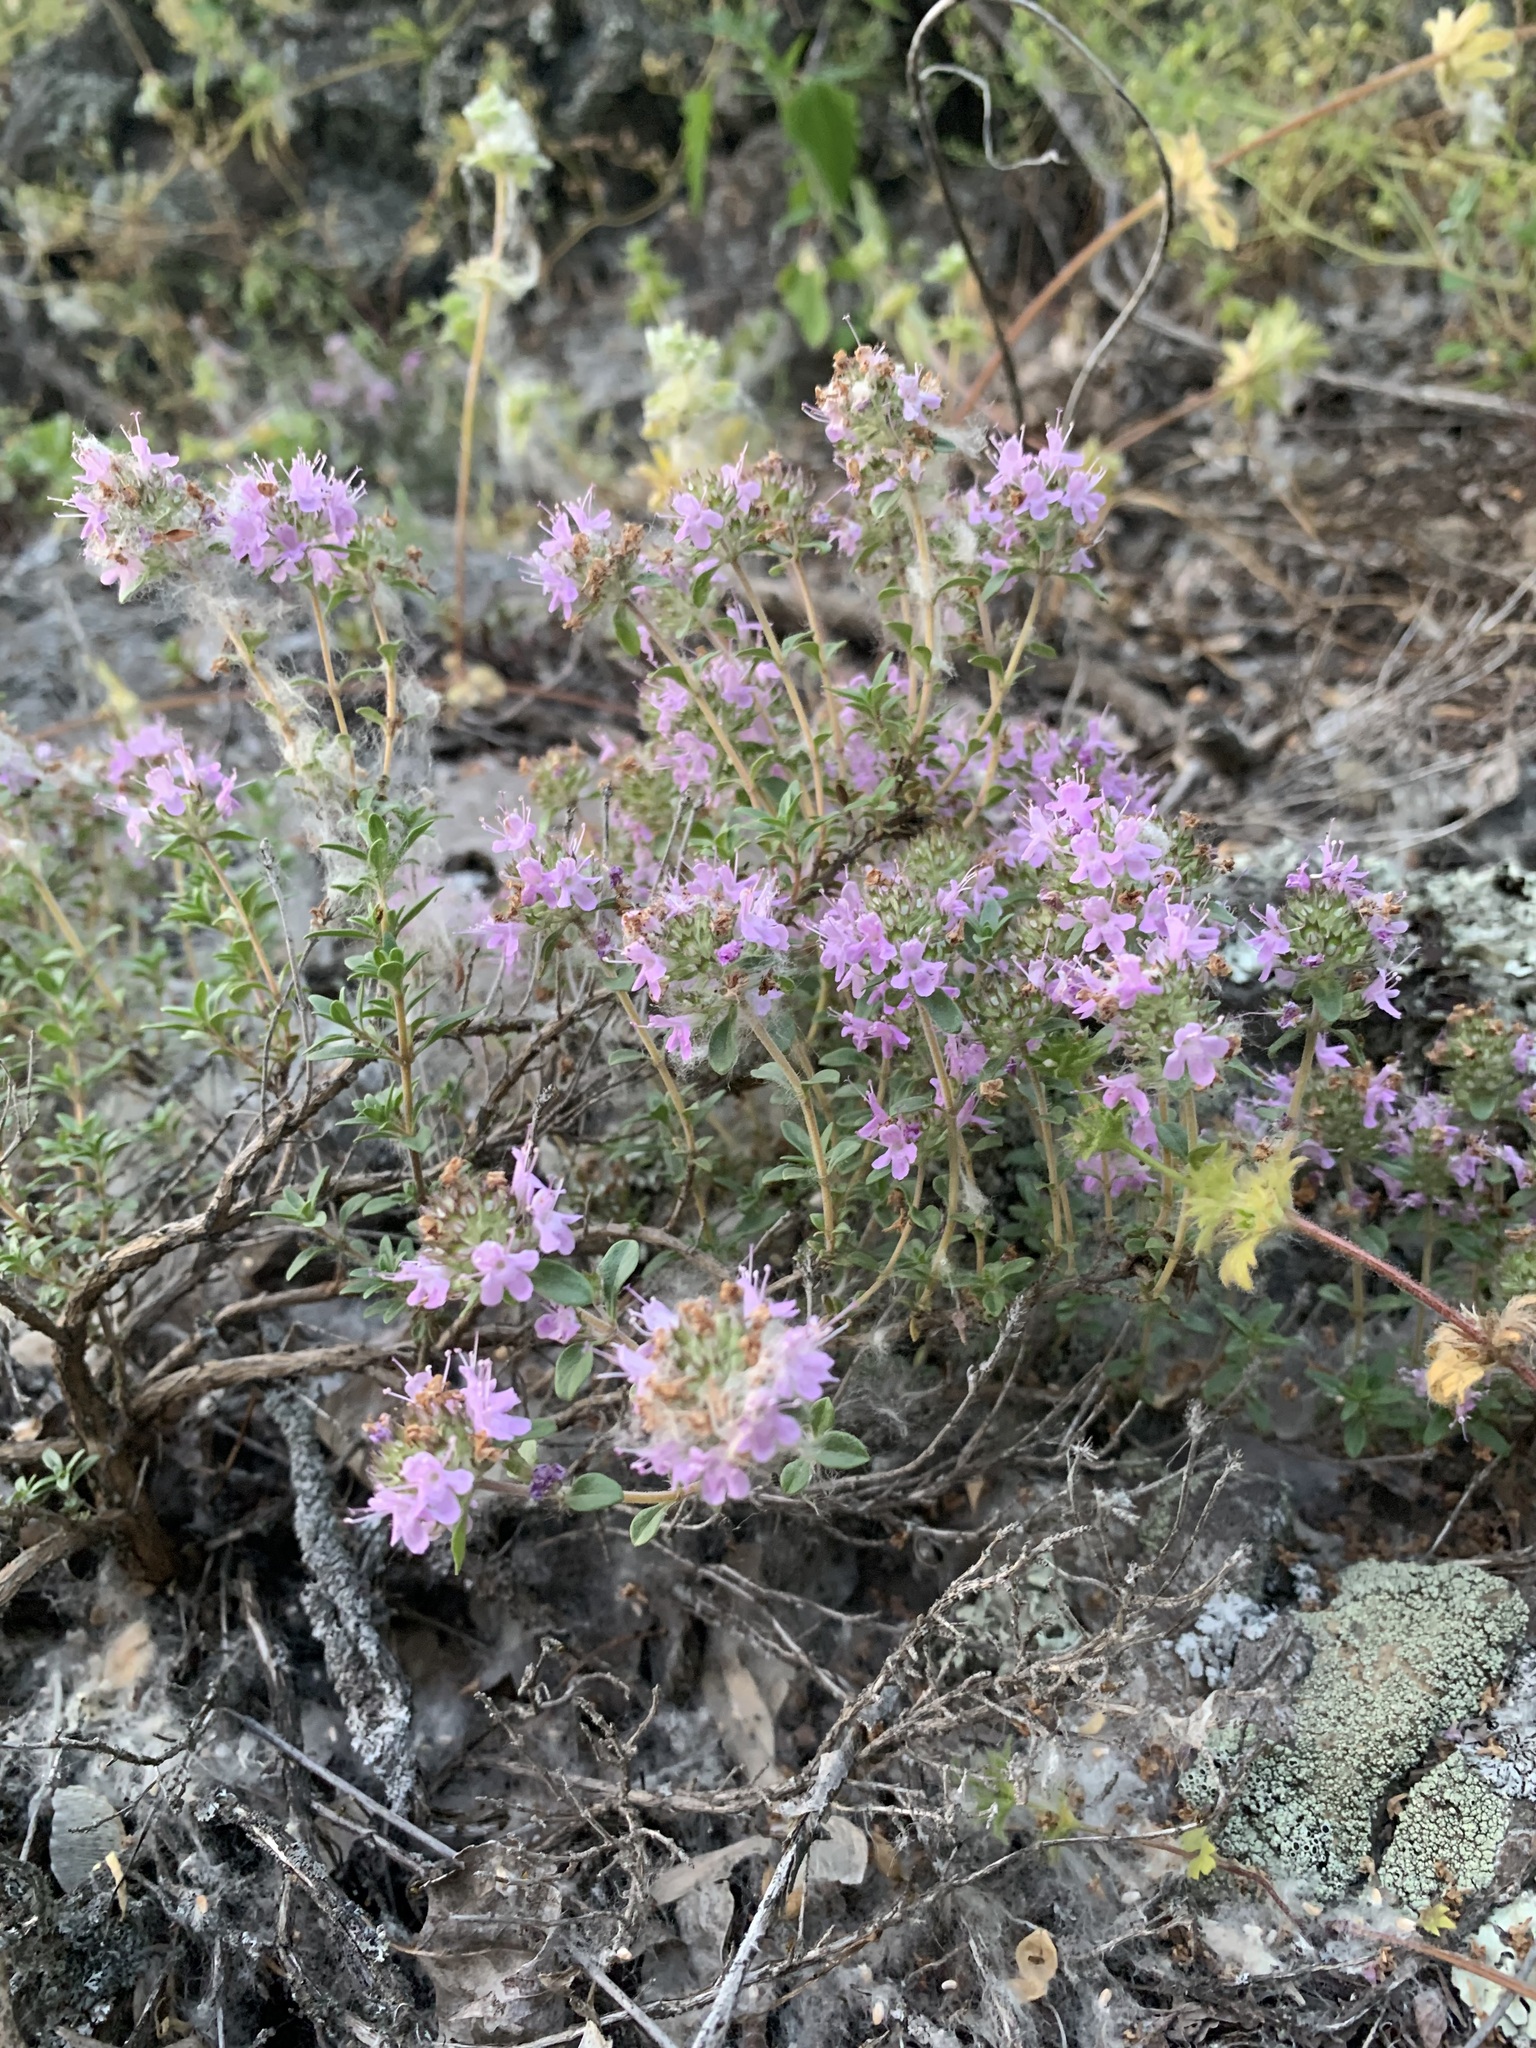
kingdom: Plantae
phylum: Tracheophyta
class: Magnoliopsida
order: Lamiales
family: Lamiaceae
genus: Thymus
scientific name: Thymus guberlinensis
